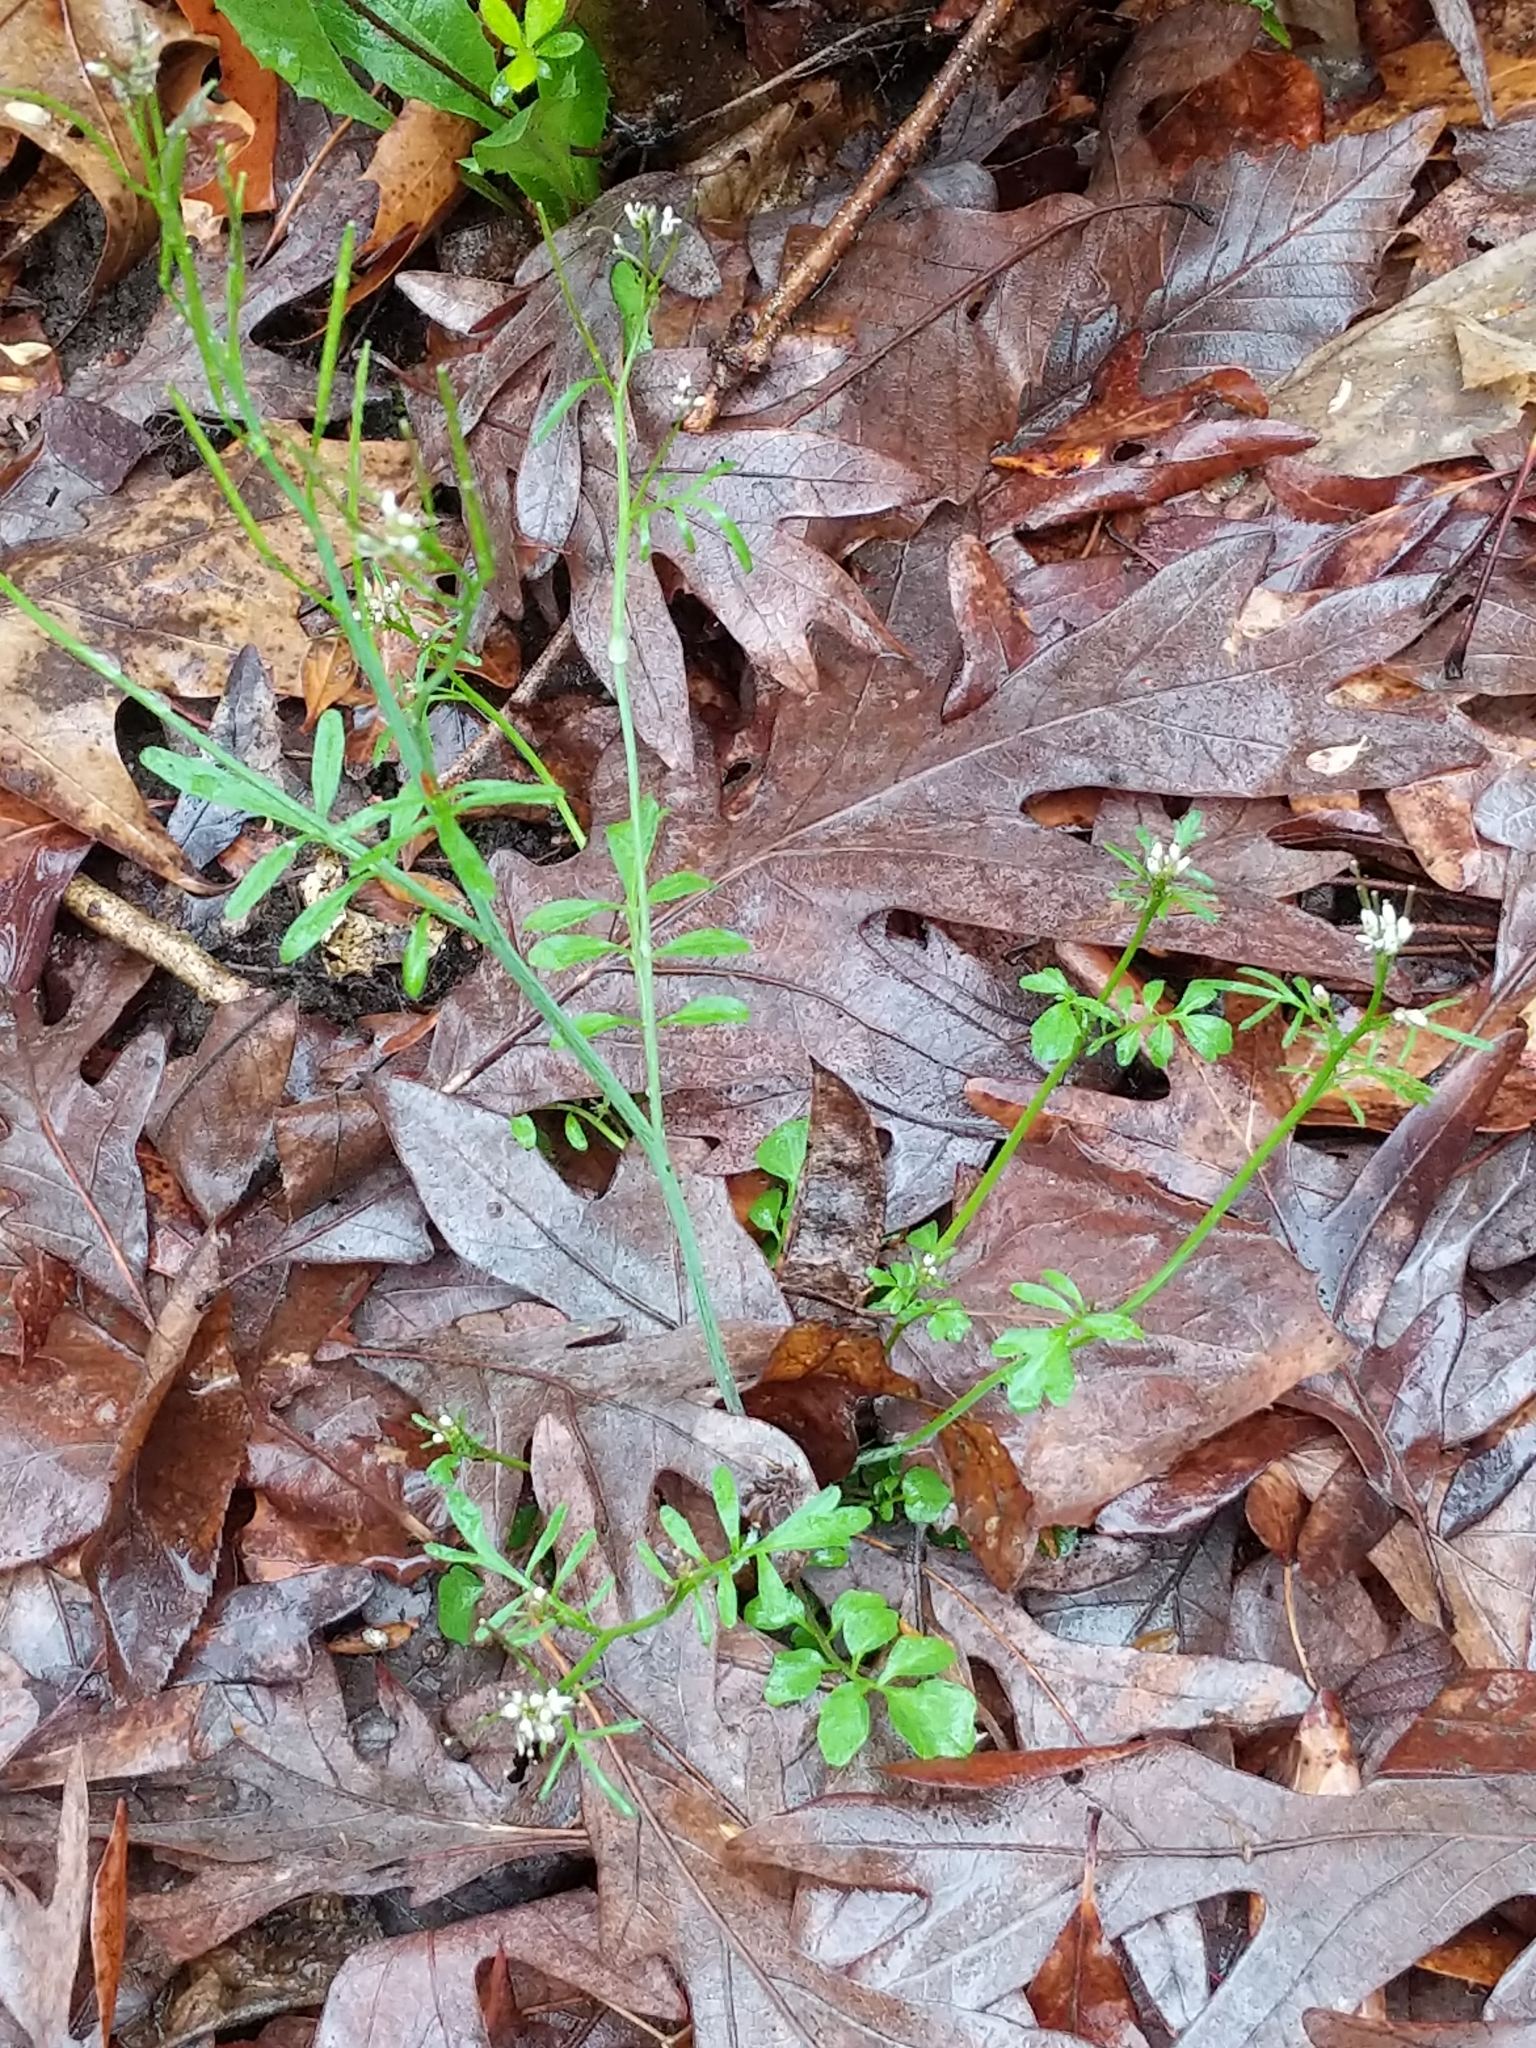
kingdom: Plantae
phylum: Tracheophyta
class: Magnoliopsida
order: Brassicales
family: Brassicaceae
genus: Cardamine
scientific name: Cardamine pensylvanica
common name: Pennsylvania bittercress
